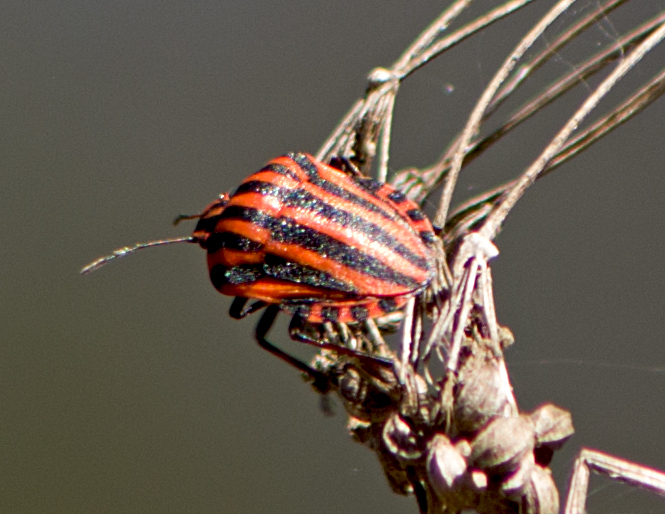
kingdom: Animalia
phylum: Arthropoda
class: Insecta
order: Hemiptera
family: Pentatomidae
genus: Graphosoma
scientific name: Graphosoma italicum
